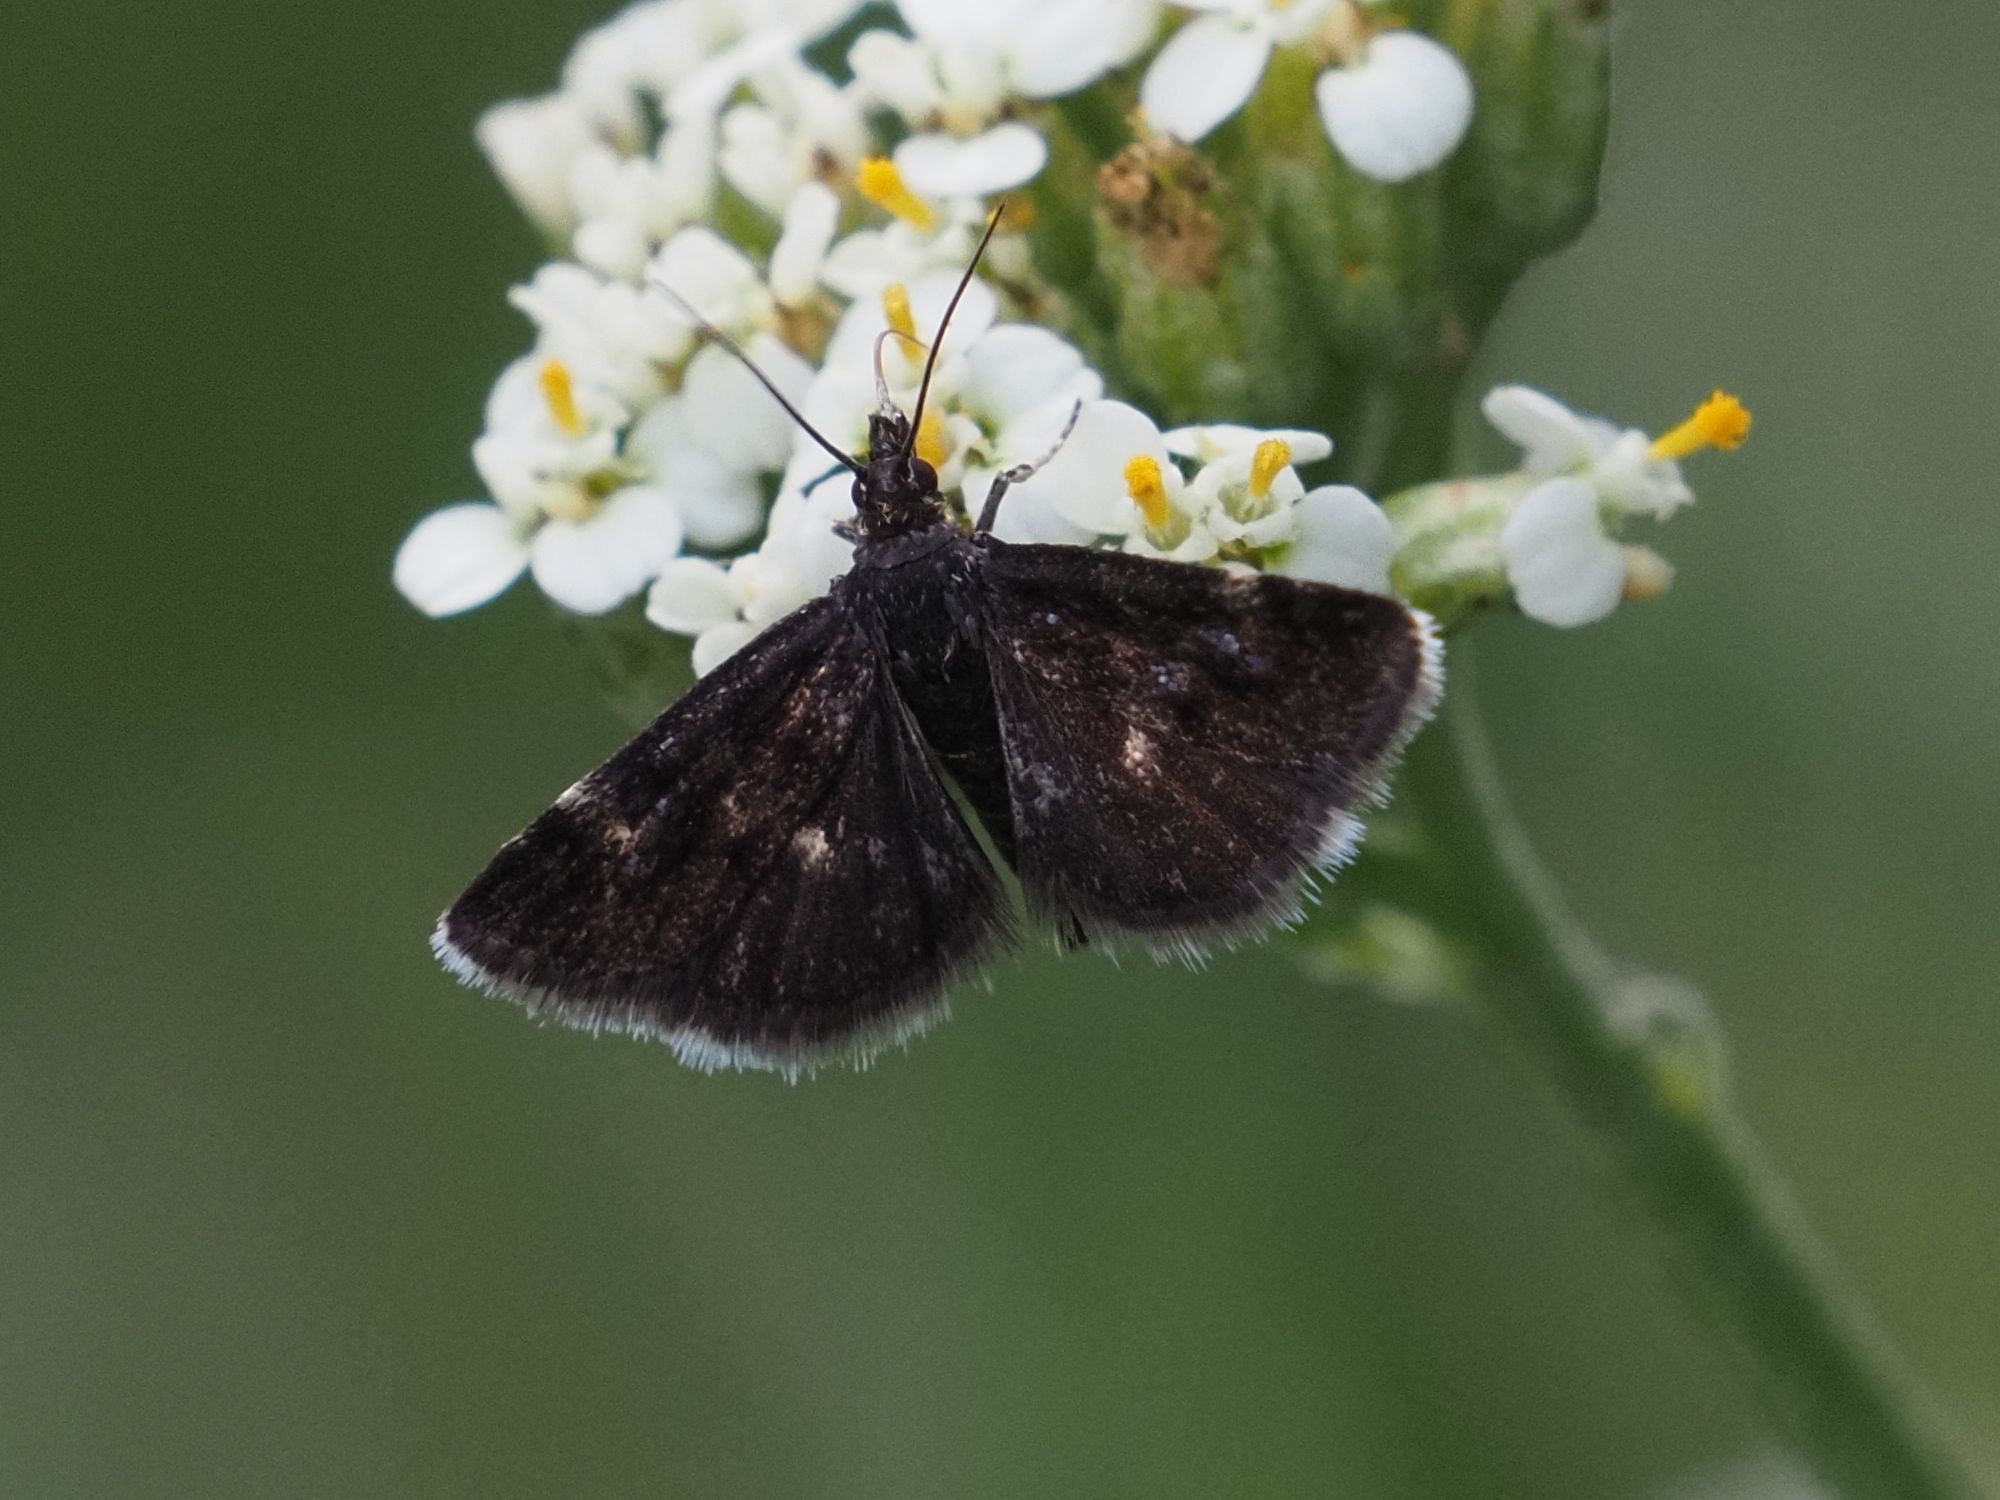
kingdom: Animalia
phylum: Arthropoda
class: Insecta
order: Lepidoptera
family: Crambidae
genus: Heliothela
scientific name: Heliothela wulfeniana
